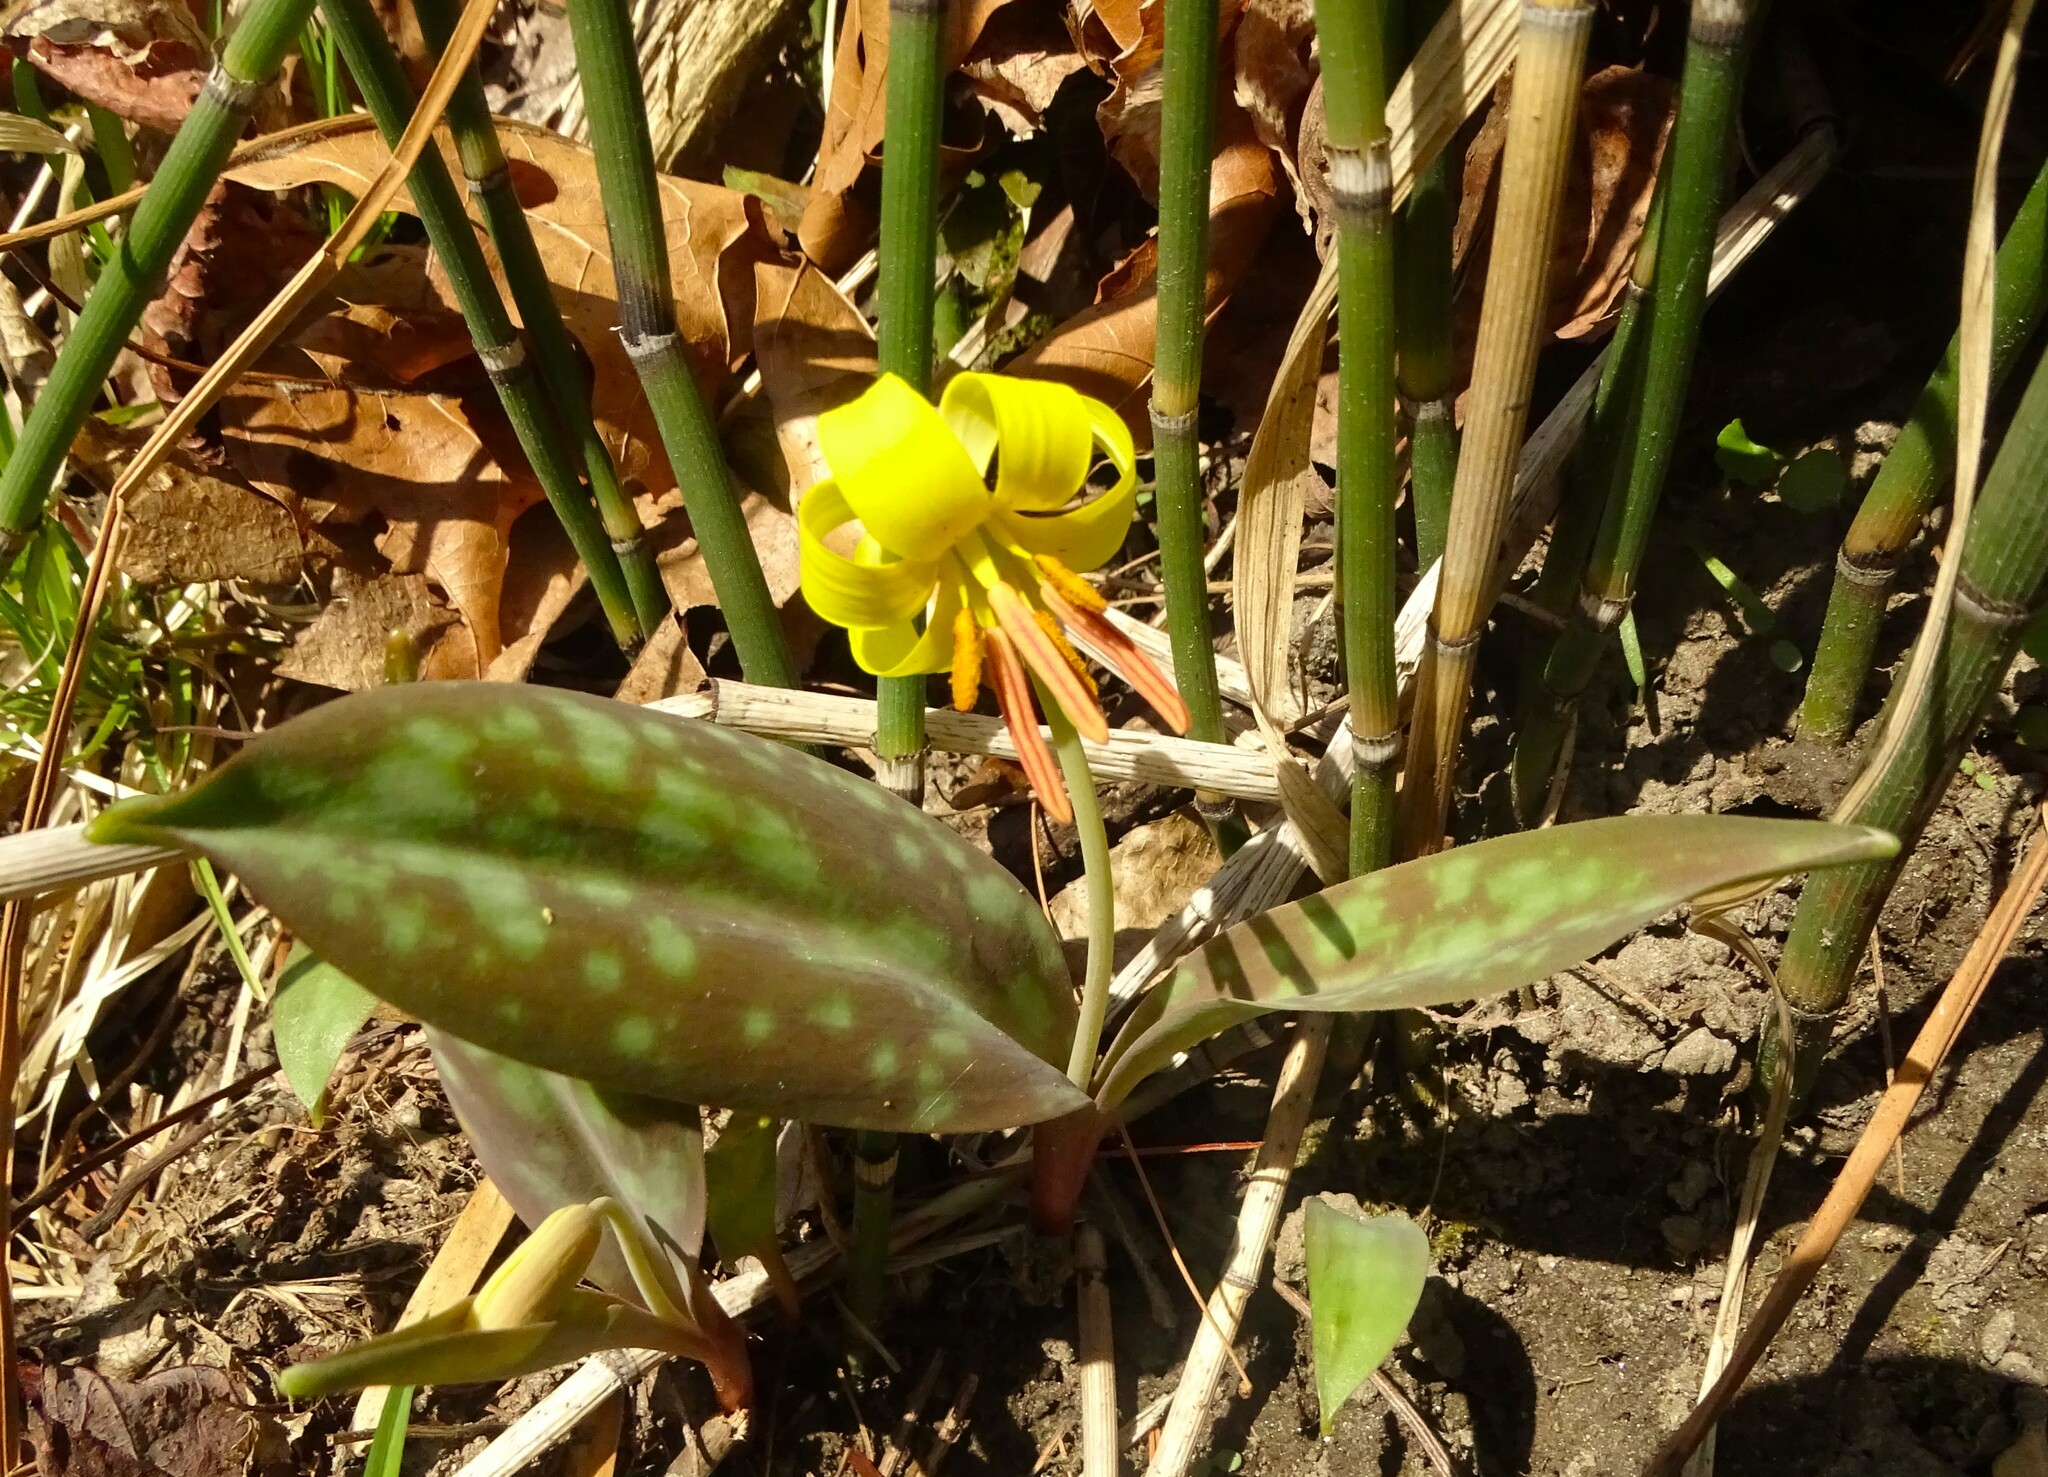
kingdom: Plantae
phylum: Tracheophyta
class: Liliopsida
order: Liliales
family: Liliaceae
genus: Erythronium
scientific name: Erythronium americanum
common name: Yellow adder's-tongue
